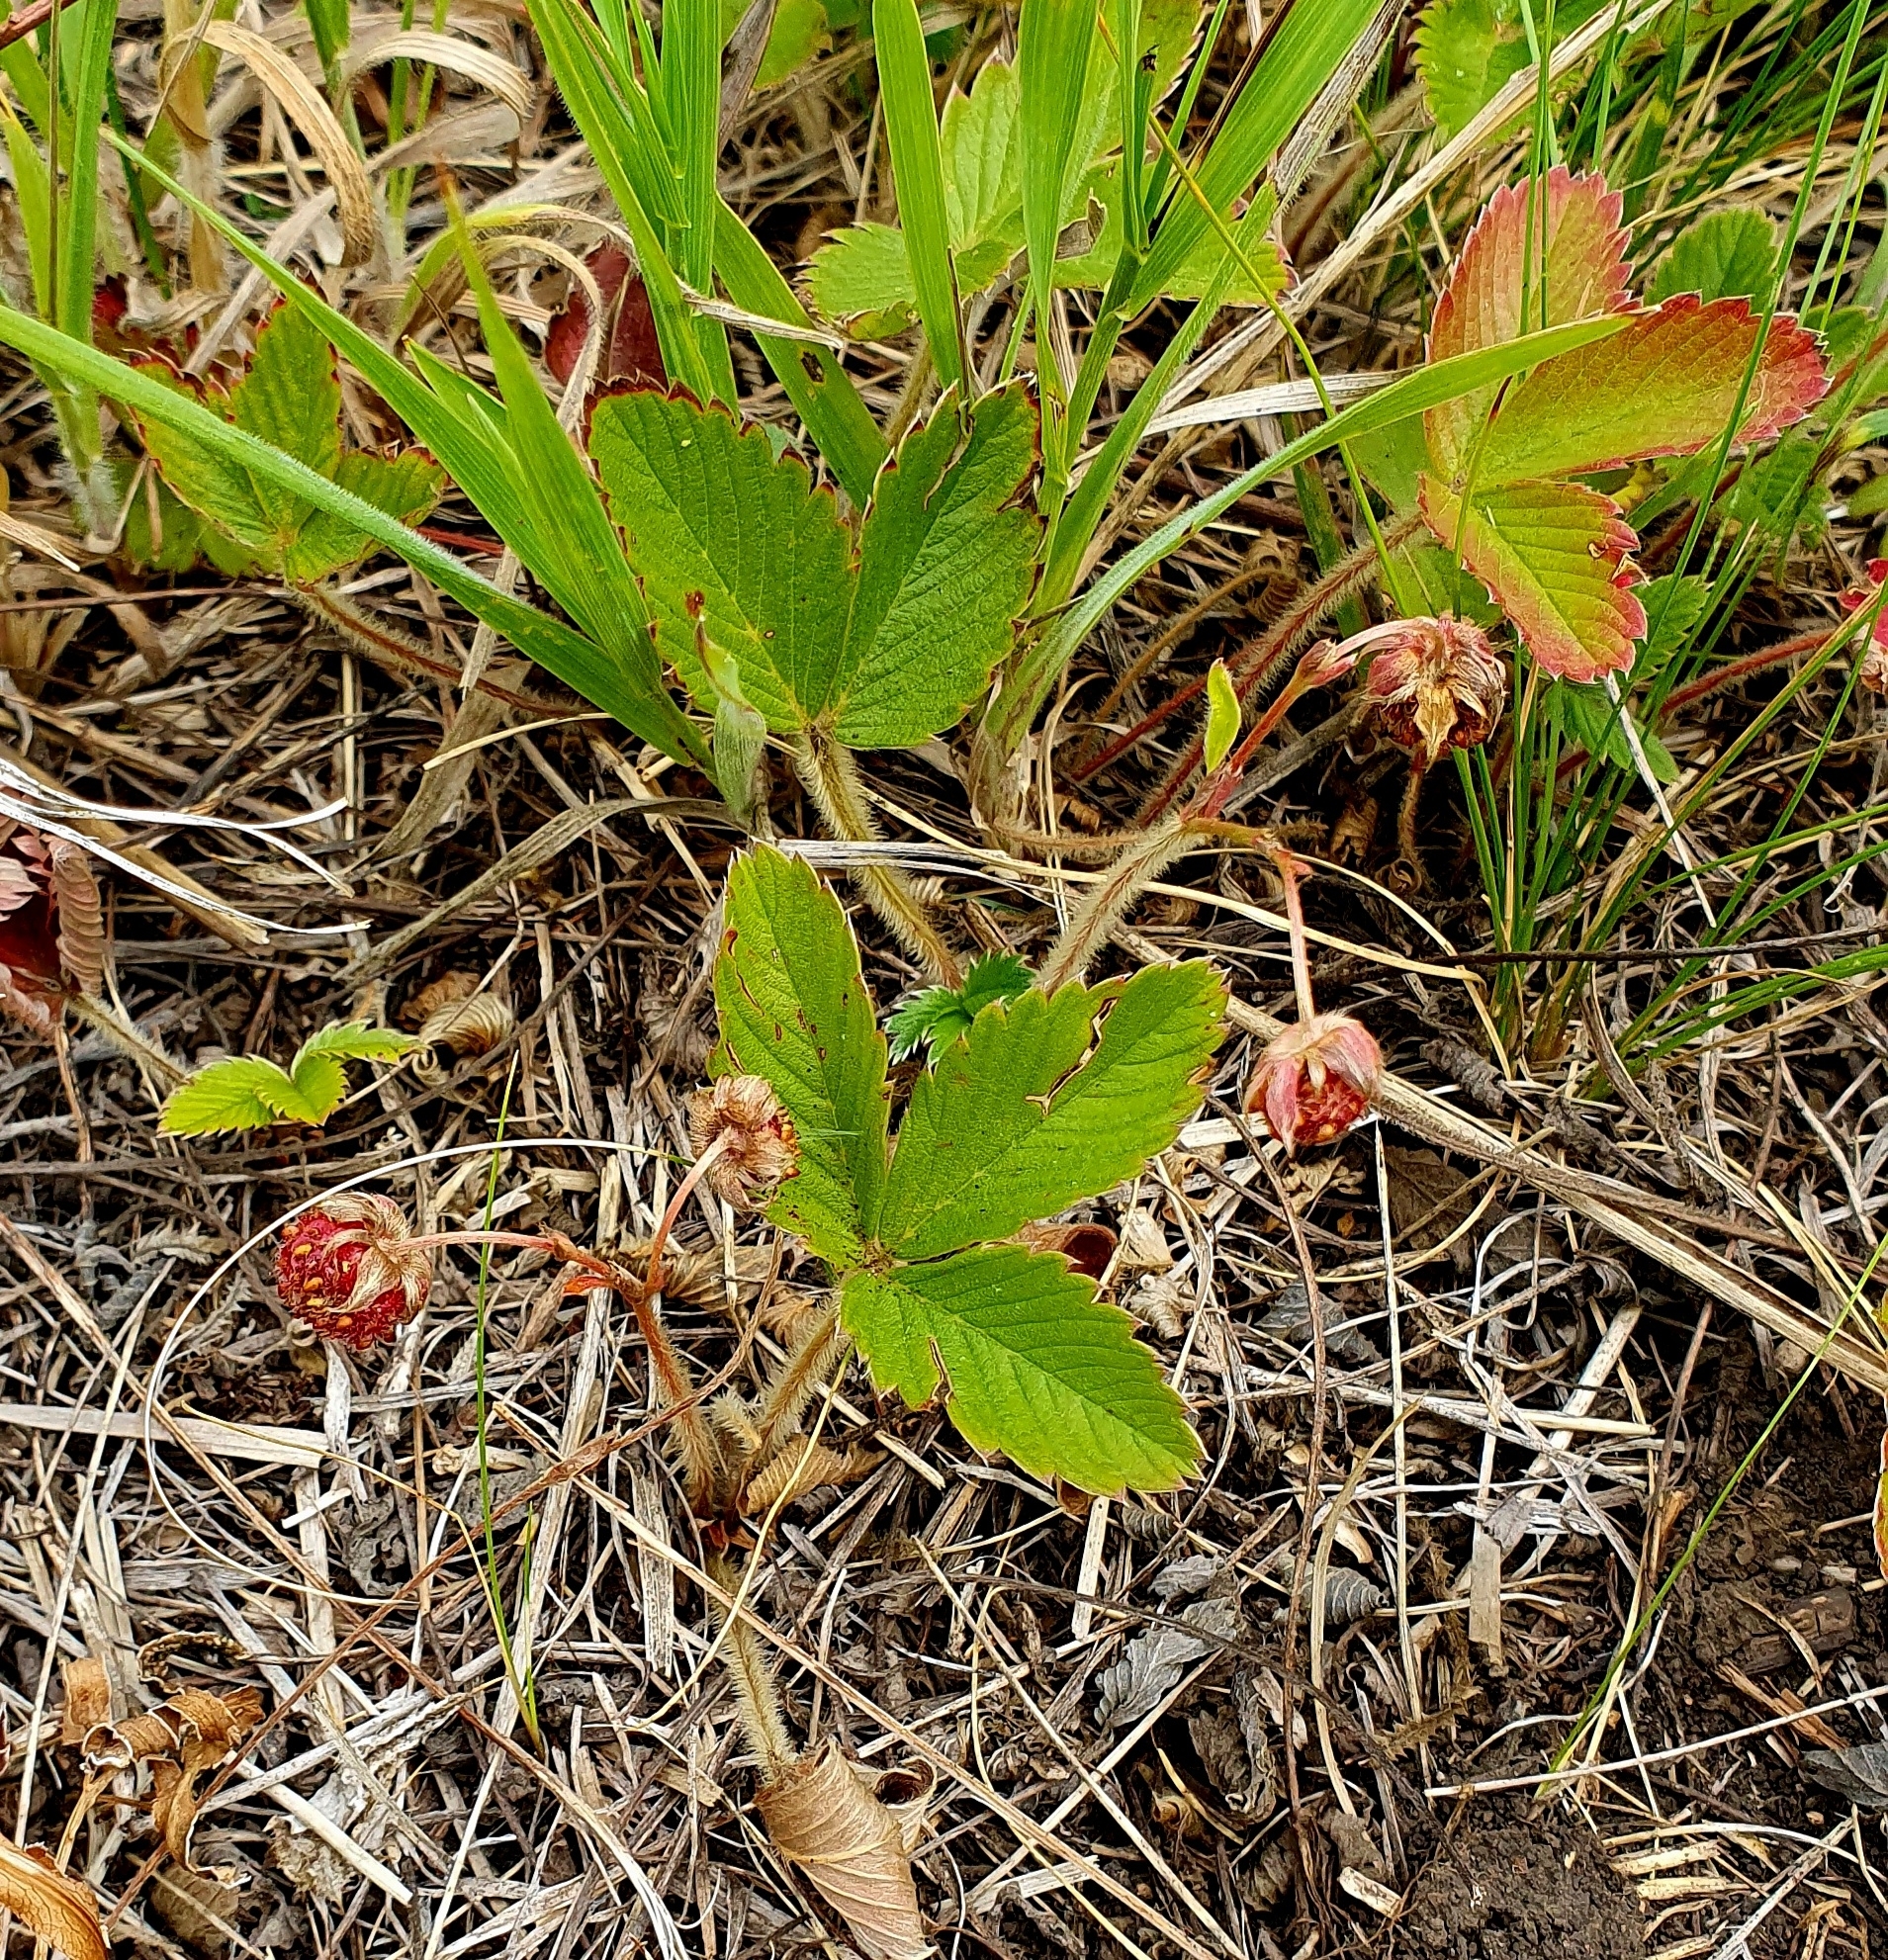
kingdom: Plantae
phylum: Tracheophyta
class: Magnoliopsida
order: Rosales
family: Rosaceae
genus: Fragaria
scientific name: Fragaria viridis
